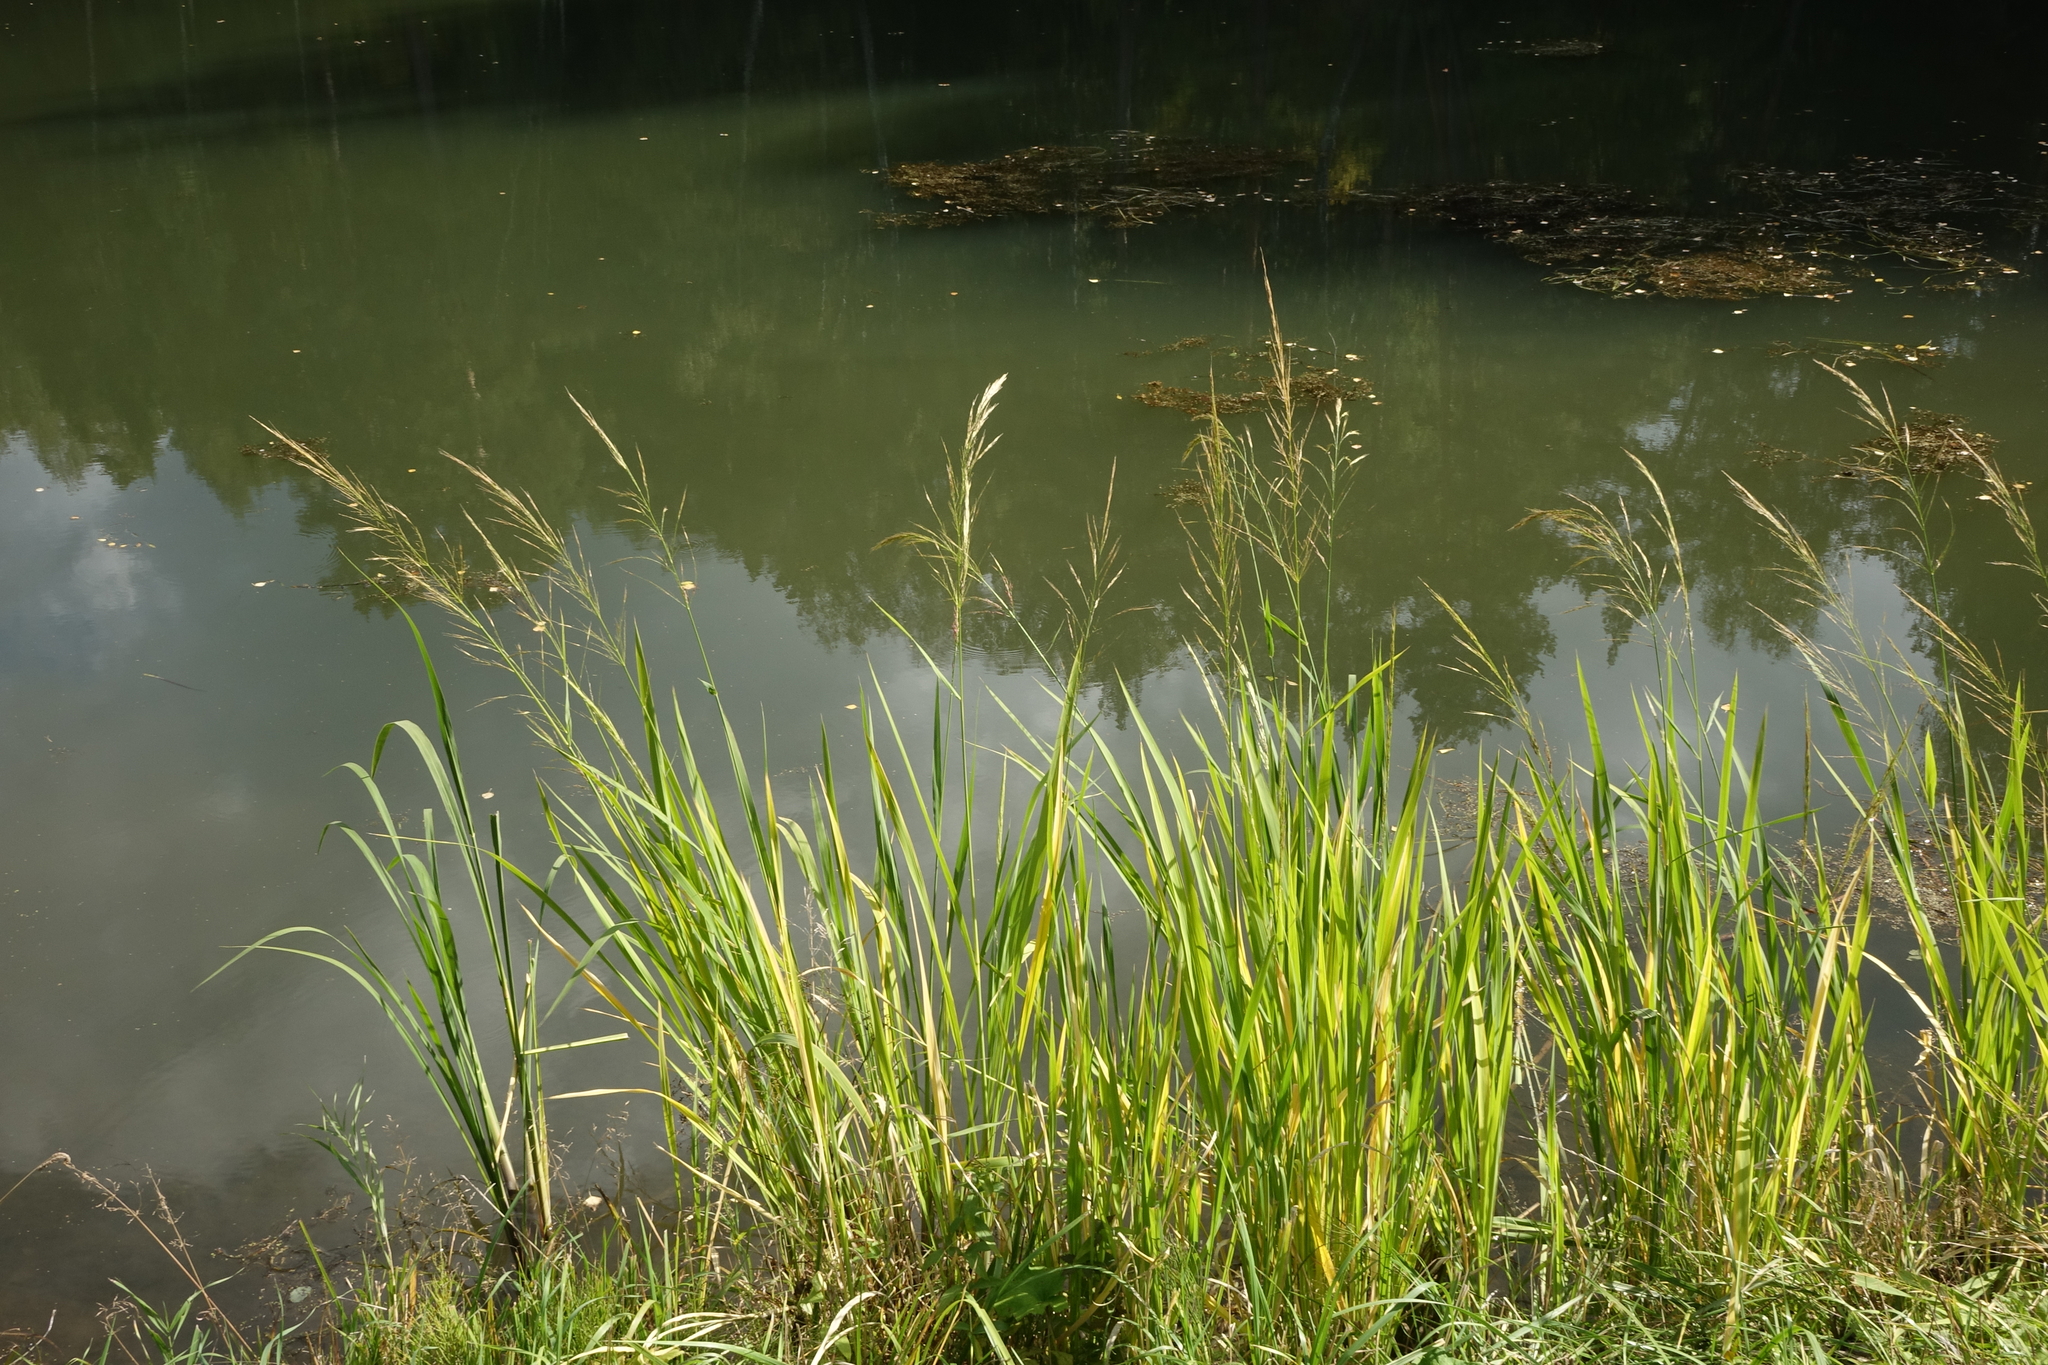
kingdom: Plantae
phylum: Tracheophyta
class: Liliopsida
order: Poales
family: Poaceae
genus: Zizania
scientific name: Zizania latifolia
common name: Manchurian wildrice
